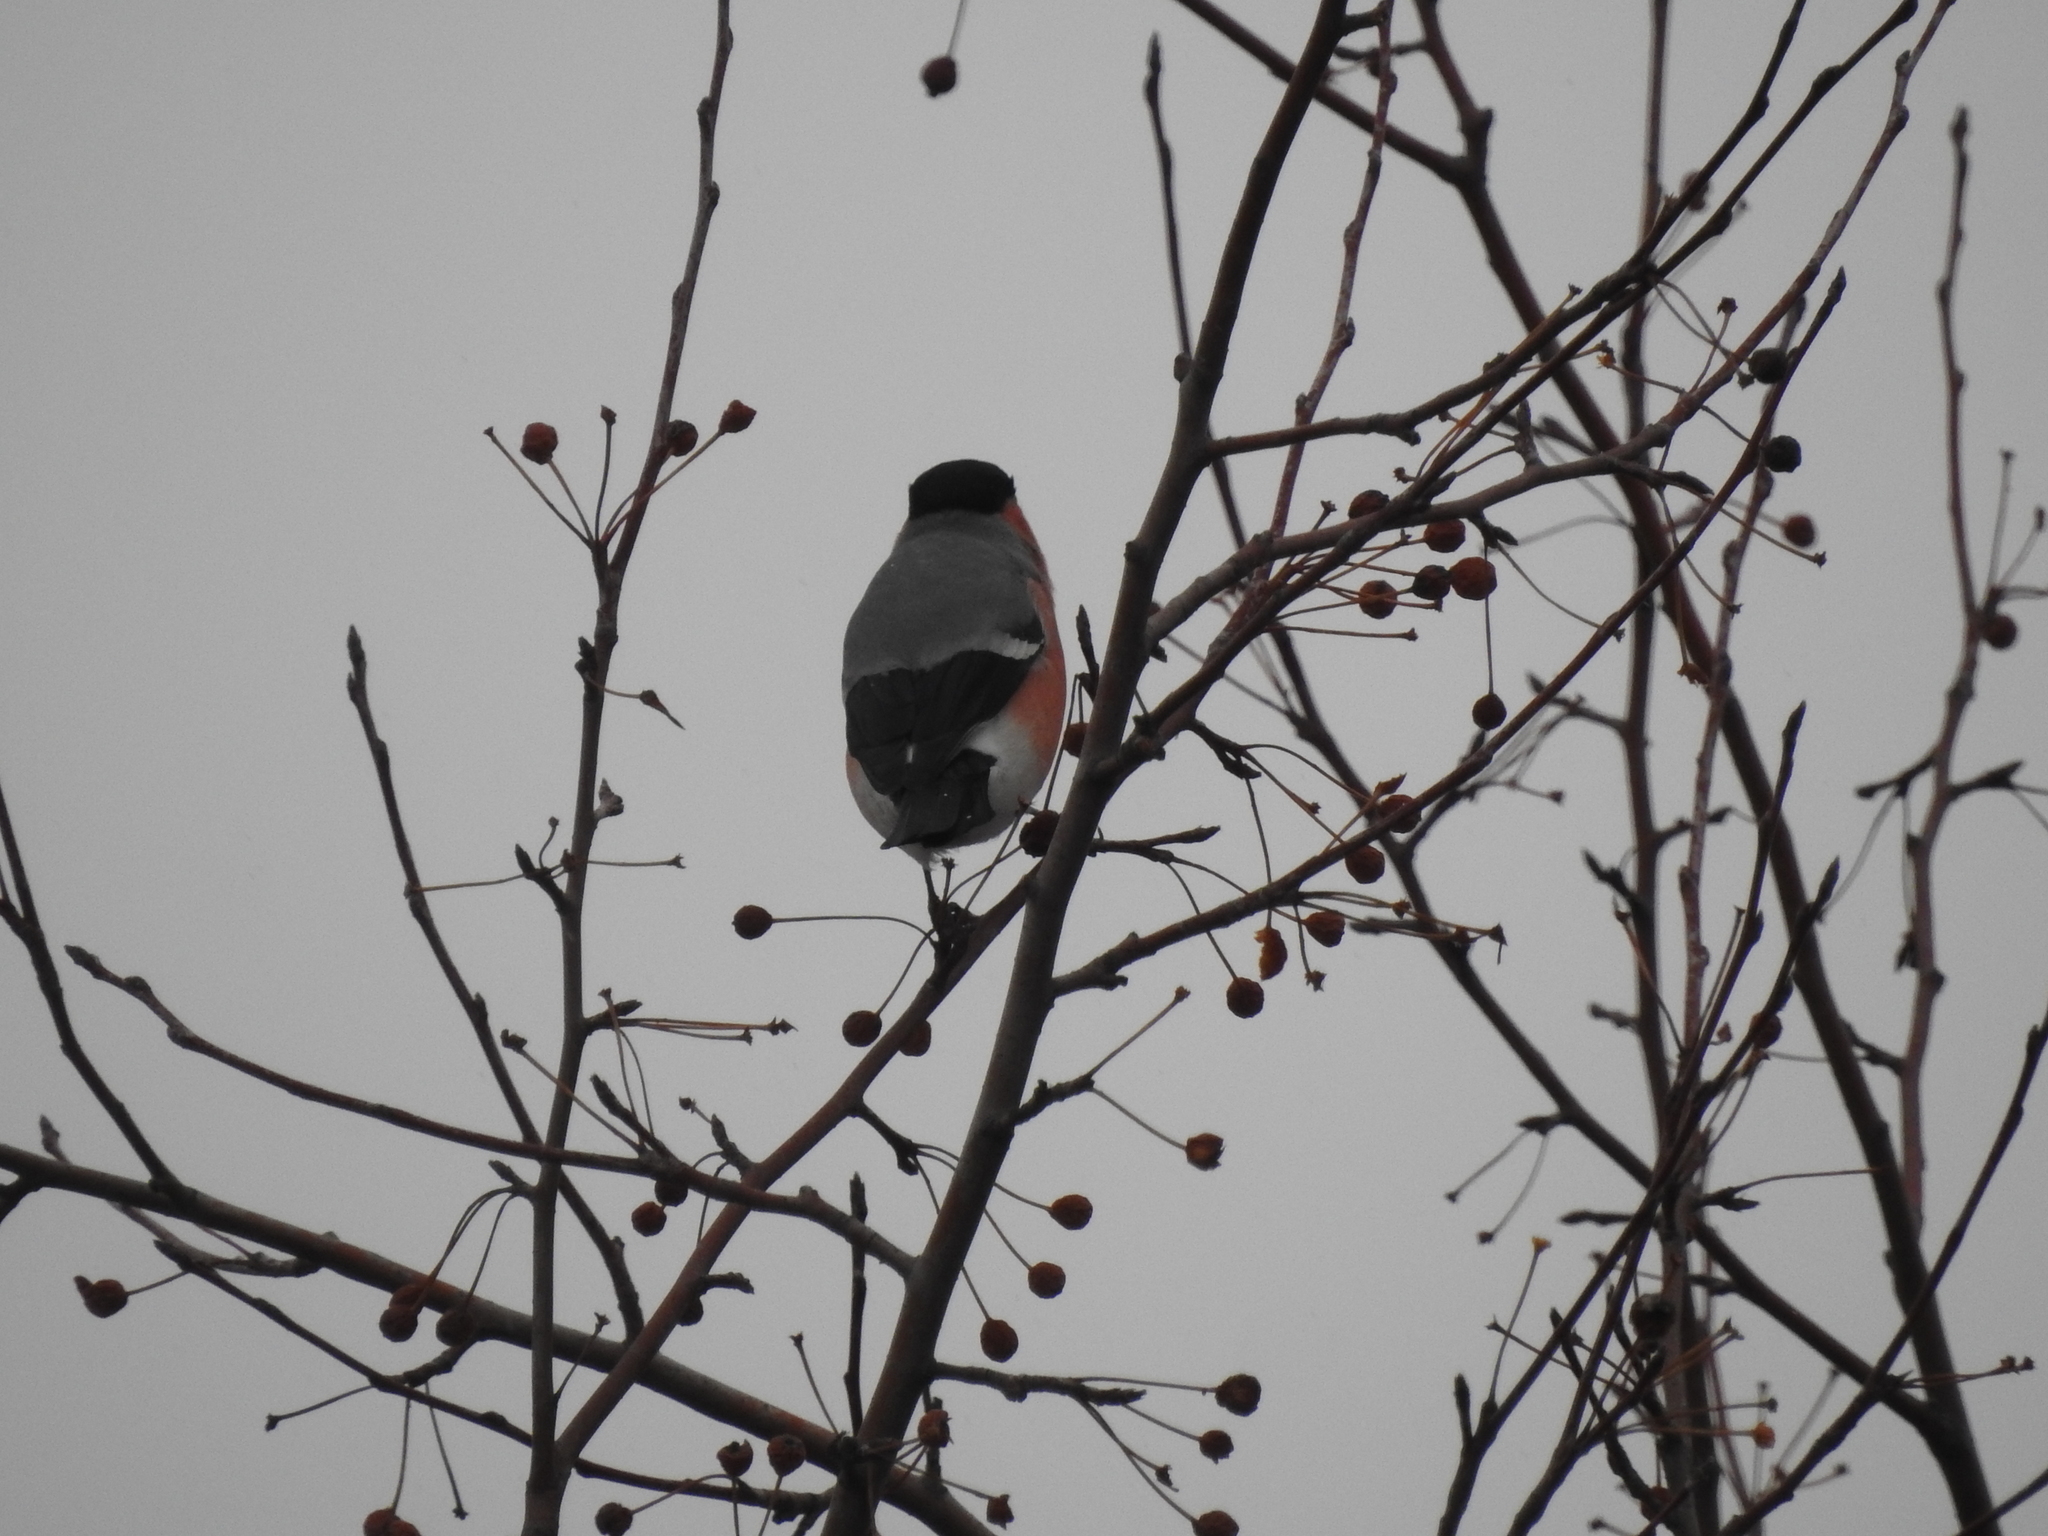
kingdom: Animalia
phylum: Chordata
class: Aves
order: Passeriformes
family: Fringillidae
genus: Pyrrhula
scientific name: Pyrrhula pyrrhula
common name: Eurasian bullfinch
